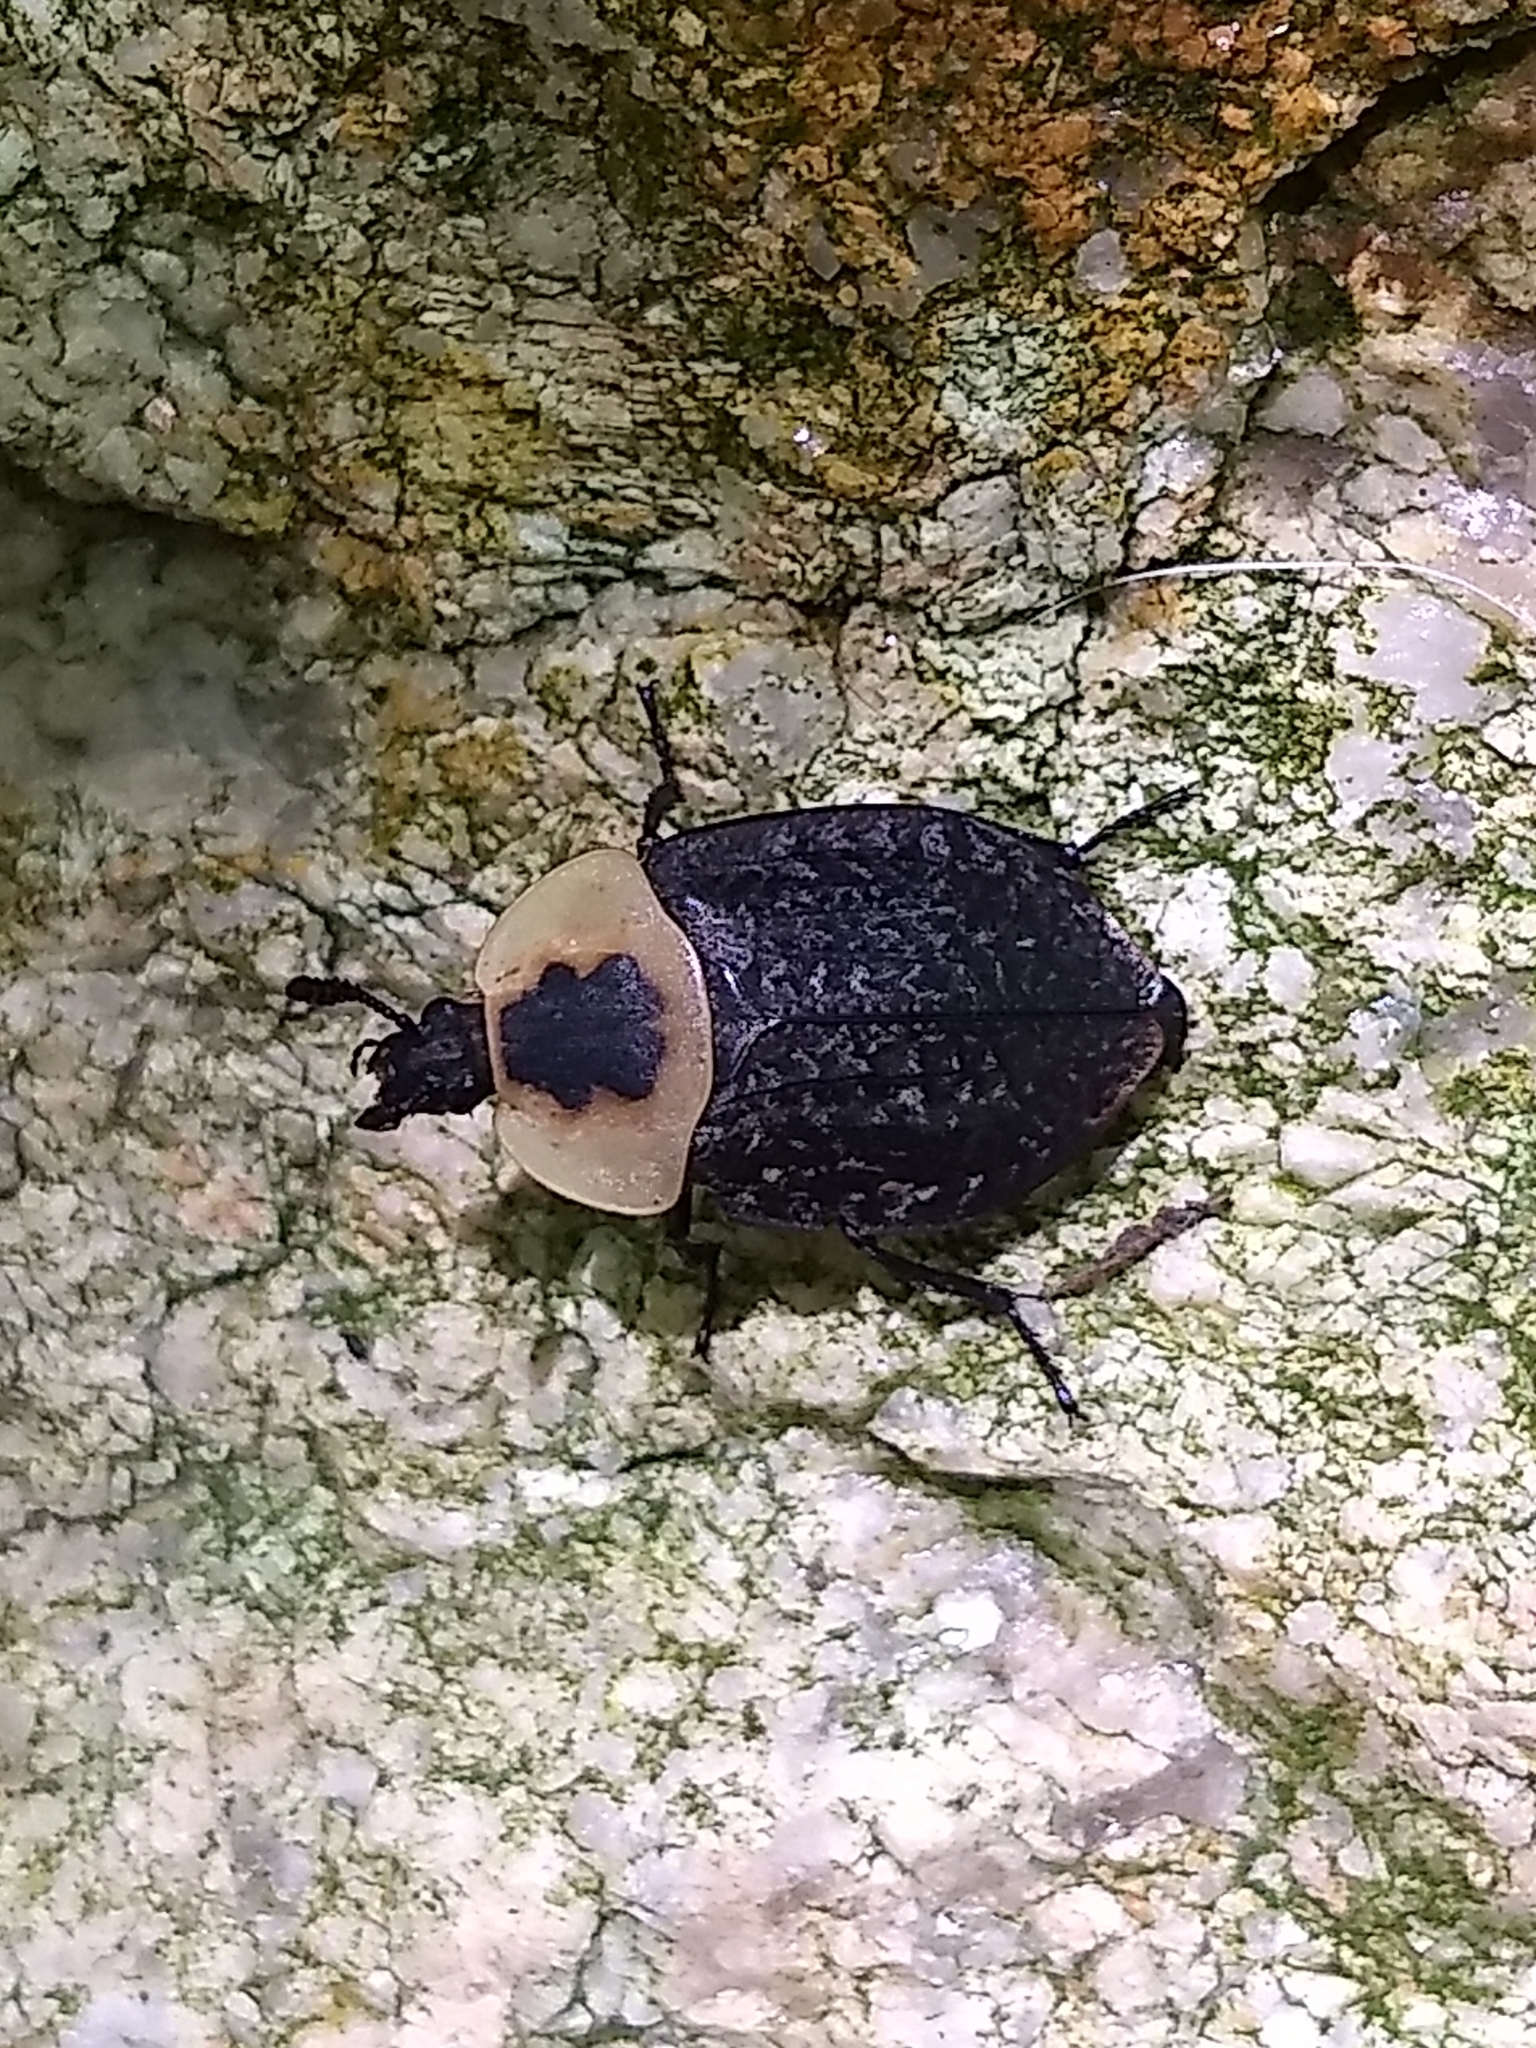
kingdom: Animalia
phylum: Arthropoda
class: Insecta
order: Coleoptera
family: Staphylinidae
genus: Necrophila
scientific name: Necrophila americana
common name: American carrion beetle
